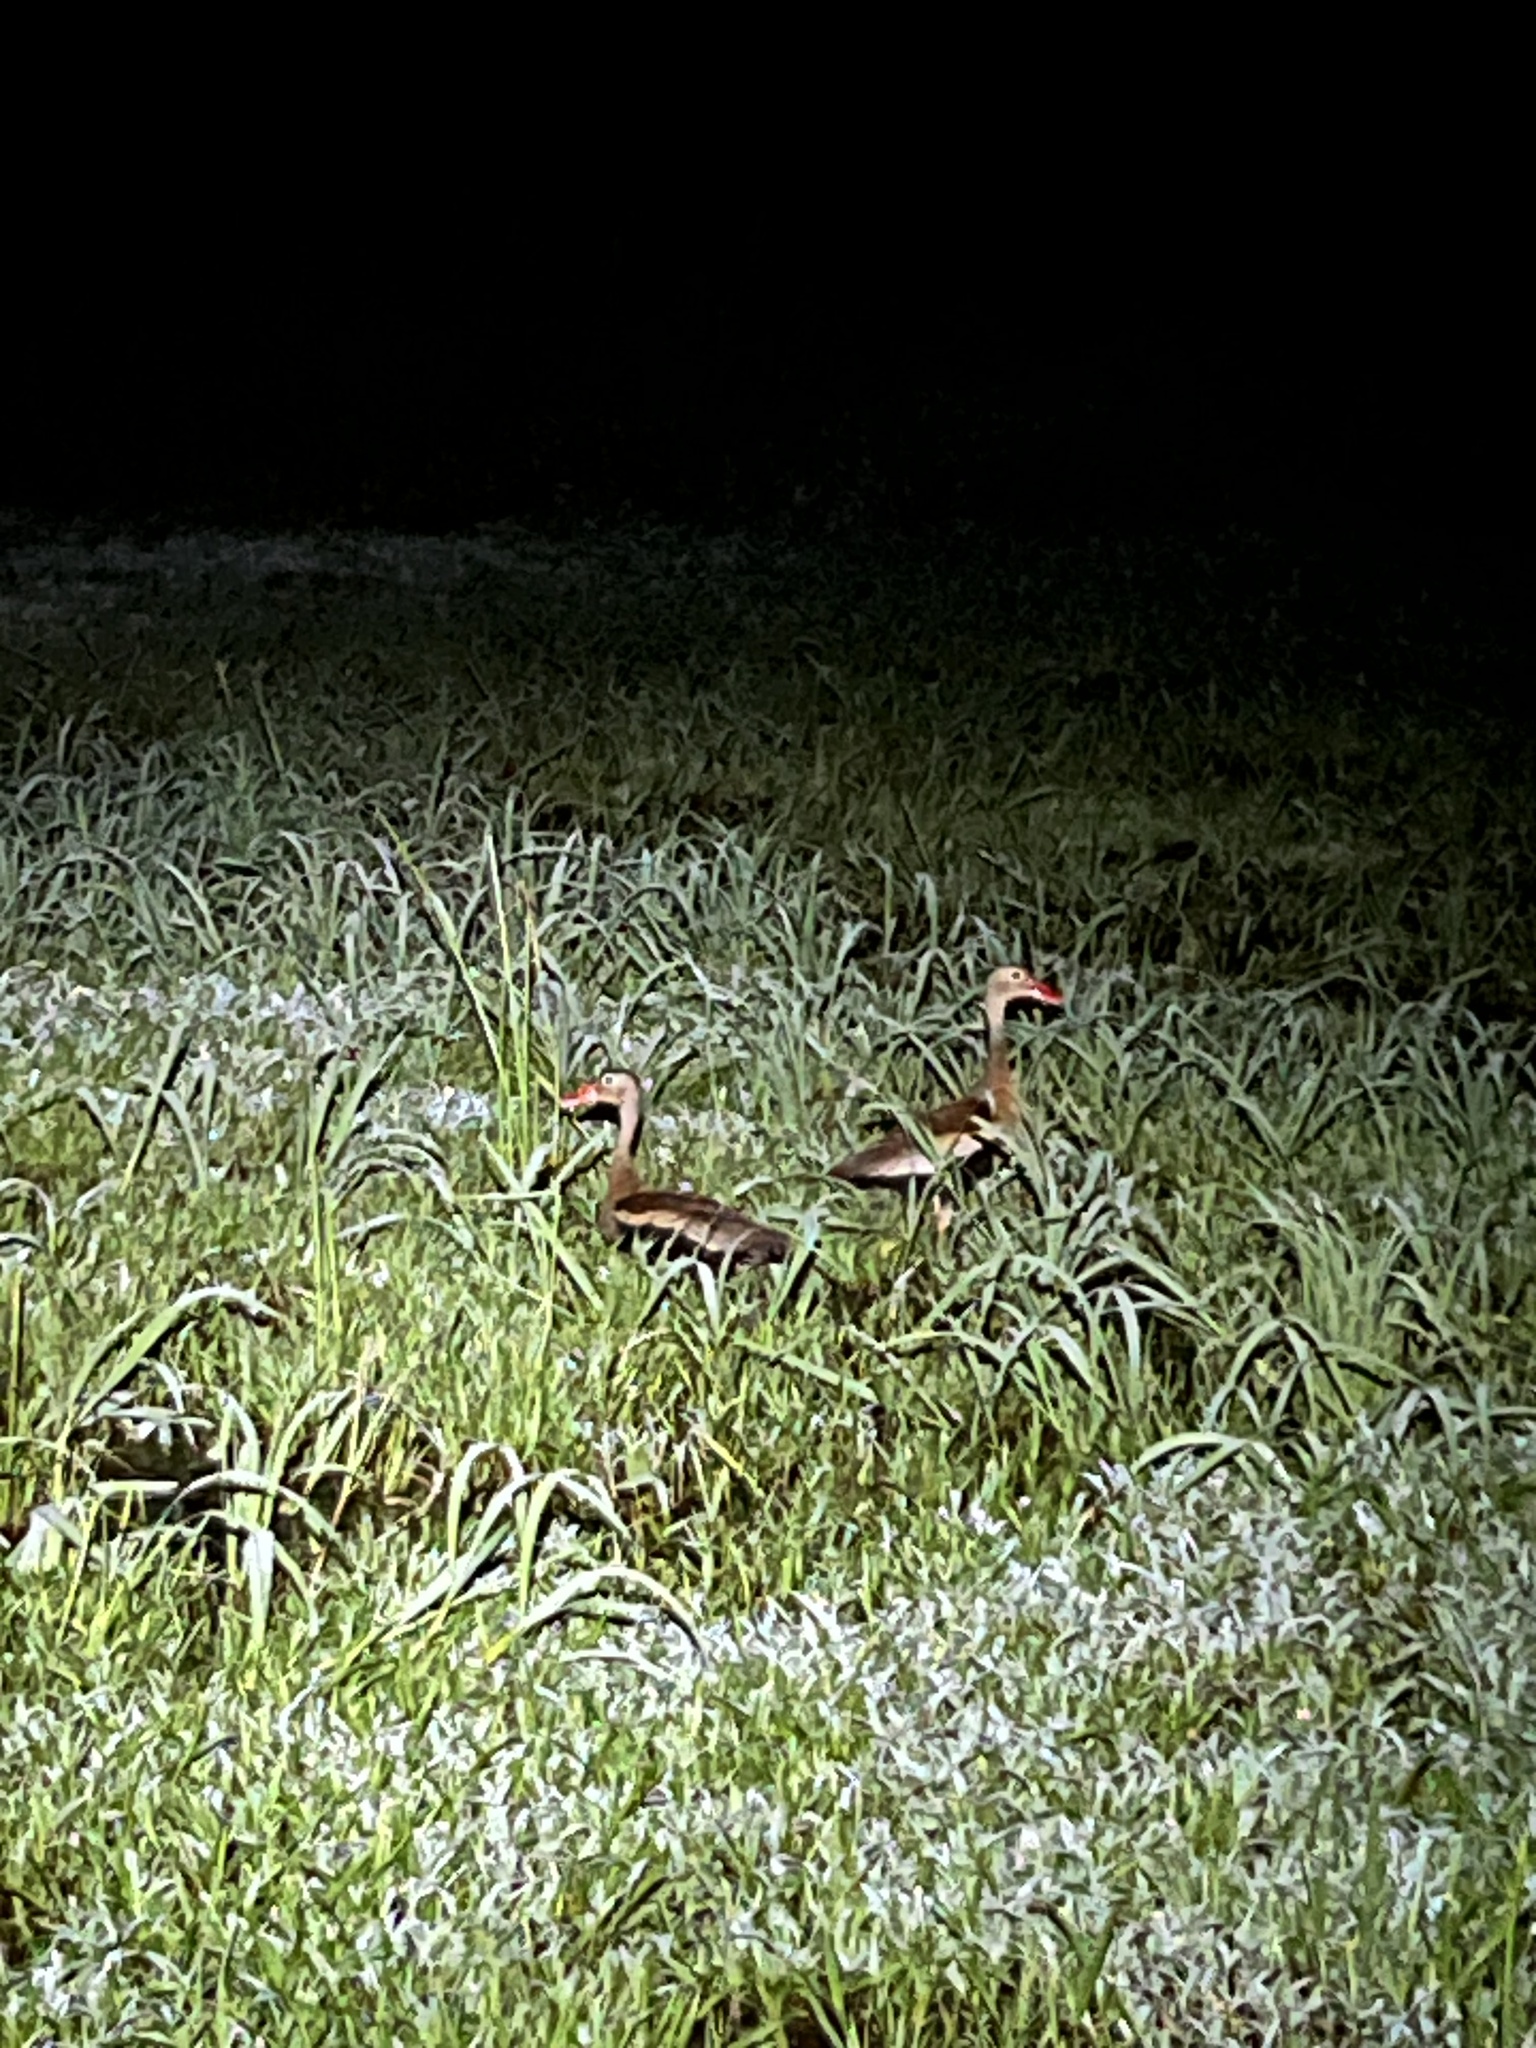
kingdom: Animalia
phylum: Chordata
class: Aves
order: Anseriformes
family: Anatidae
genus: Dendrocygna
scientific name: Dendrocygna autumnalis
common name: Black-bellied whistling duck
